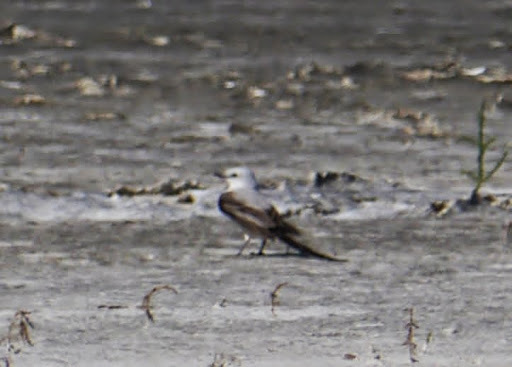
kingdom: Animalia
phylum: Chordata
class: Aves
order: Passeriformes
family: Tyrannidae
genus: Tyrannus
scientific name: Tyrannus forficatus
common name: Scissor-tailed flycatcher
